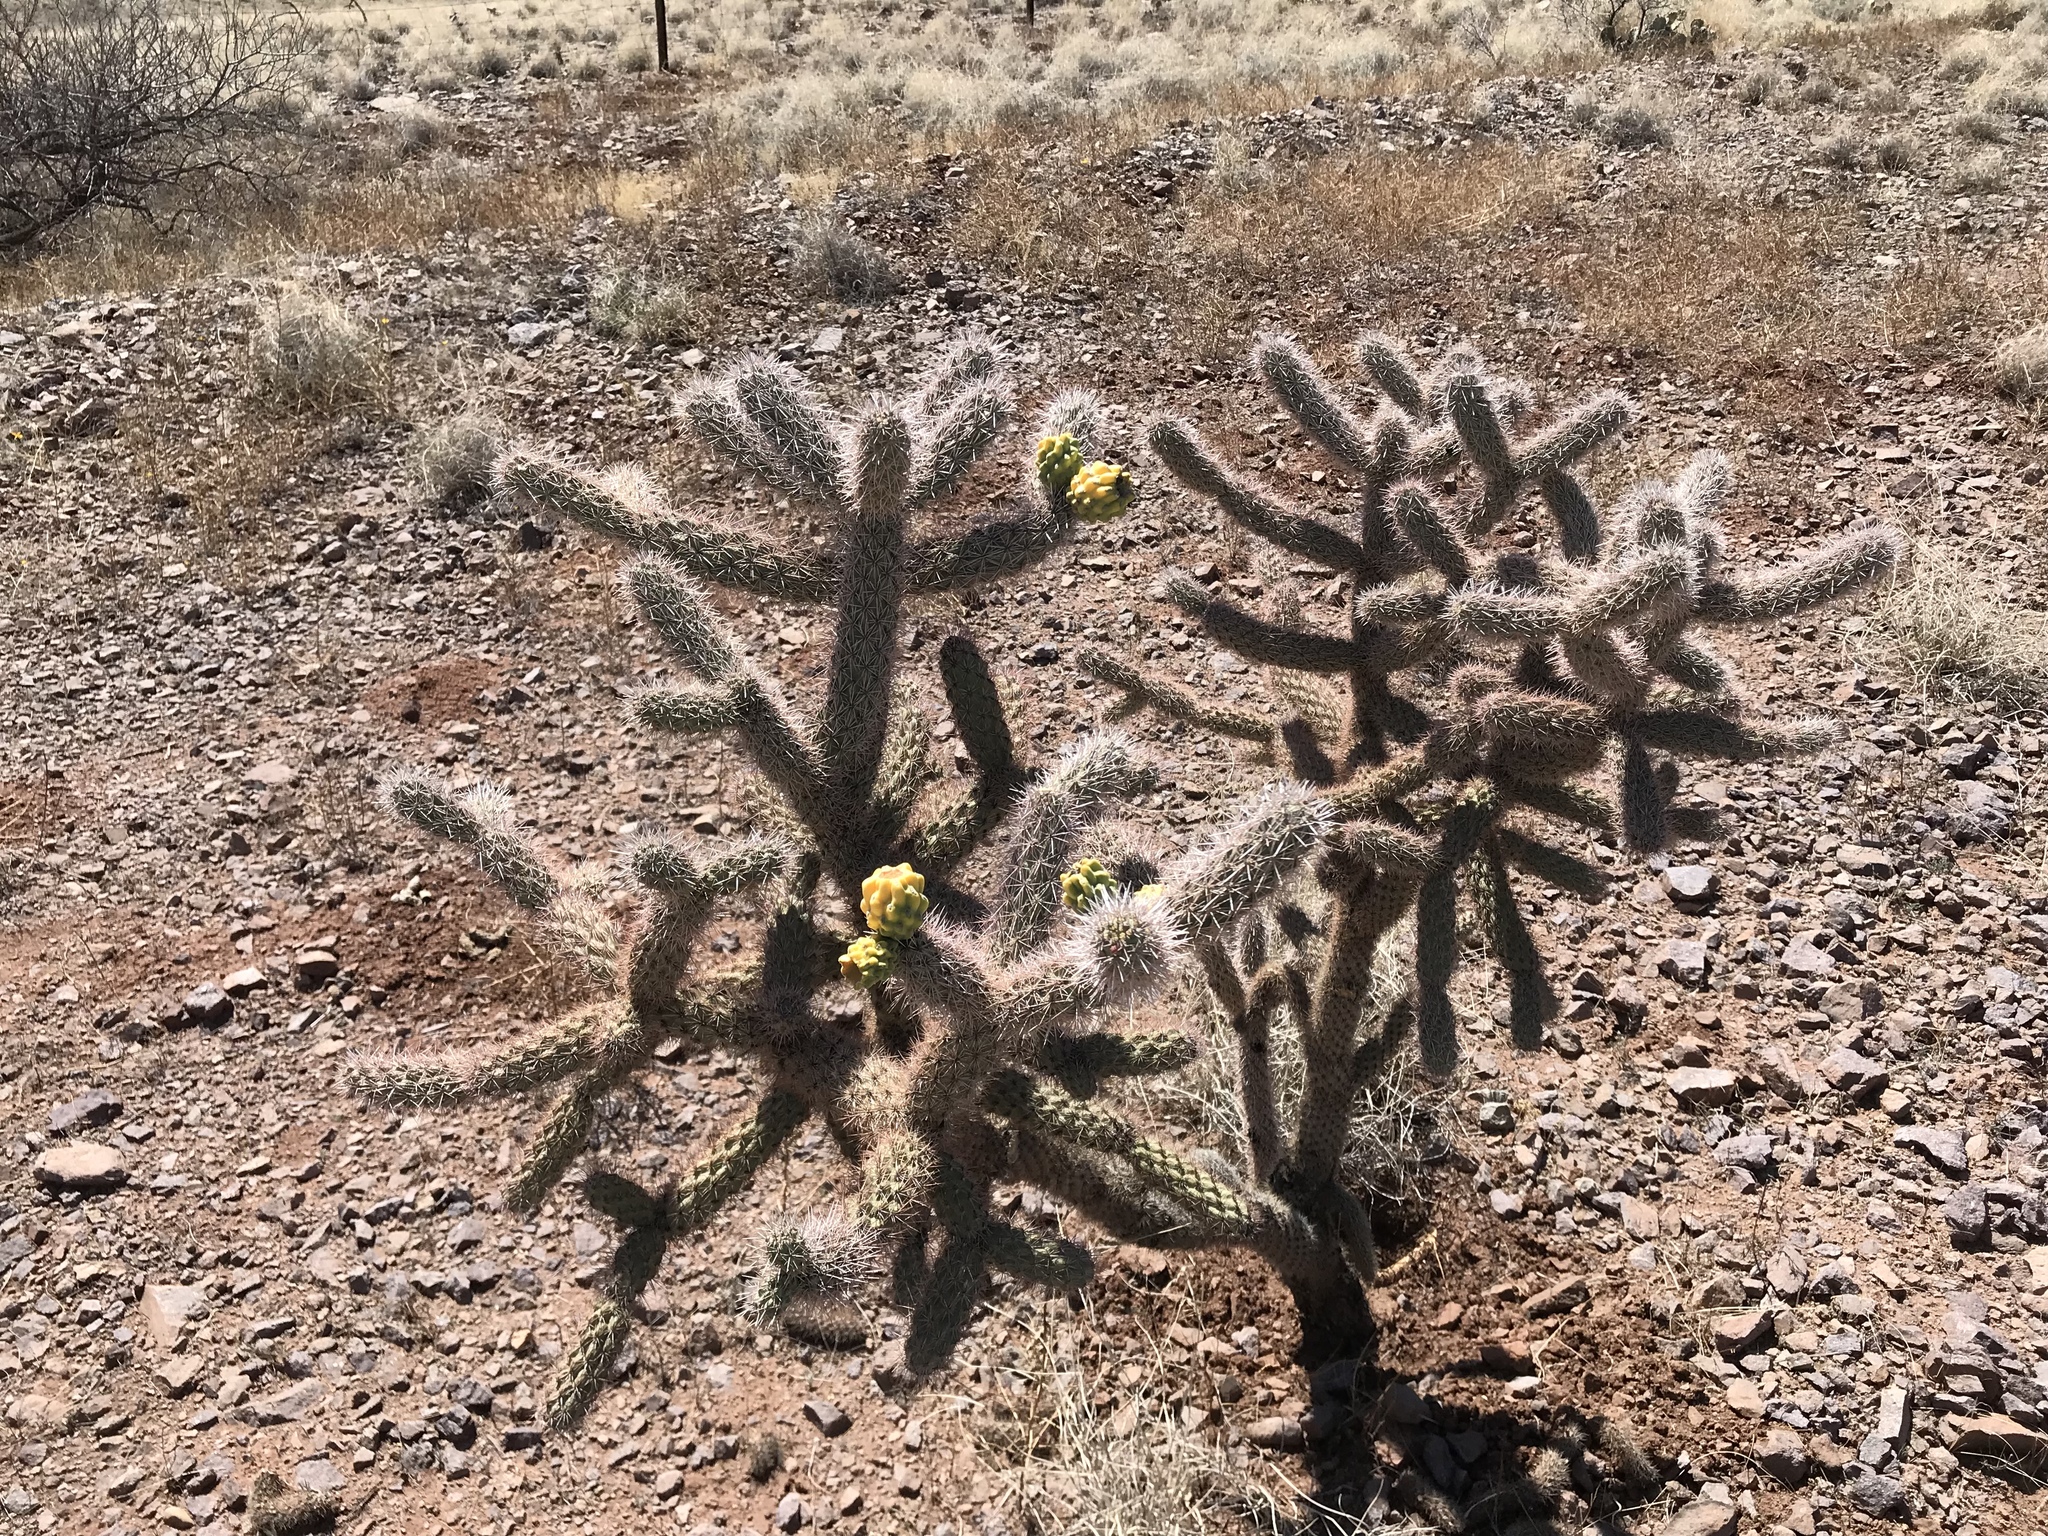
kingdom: Plantae
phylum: Tracheophyta
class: Magnoliopsida
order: Caryophyllales
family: Cactaceae
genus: Cylindropuntia
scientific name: Cylindropuntia imbricata
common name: Candelabrum cactus
